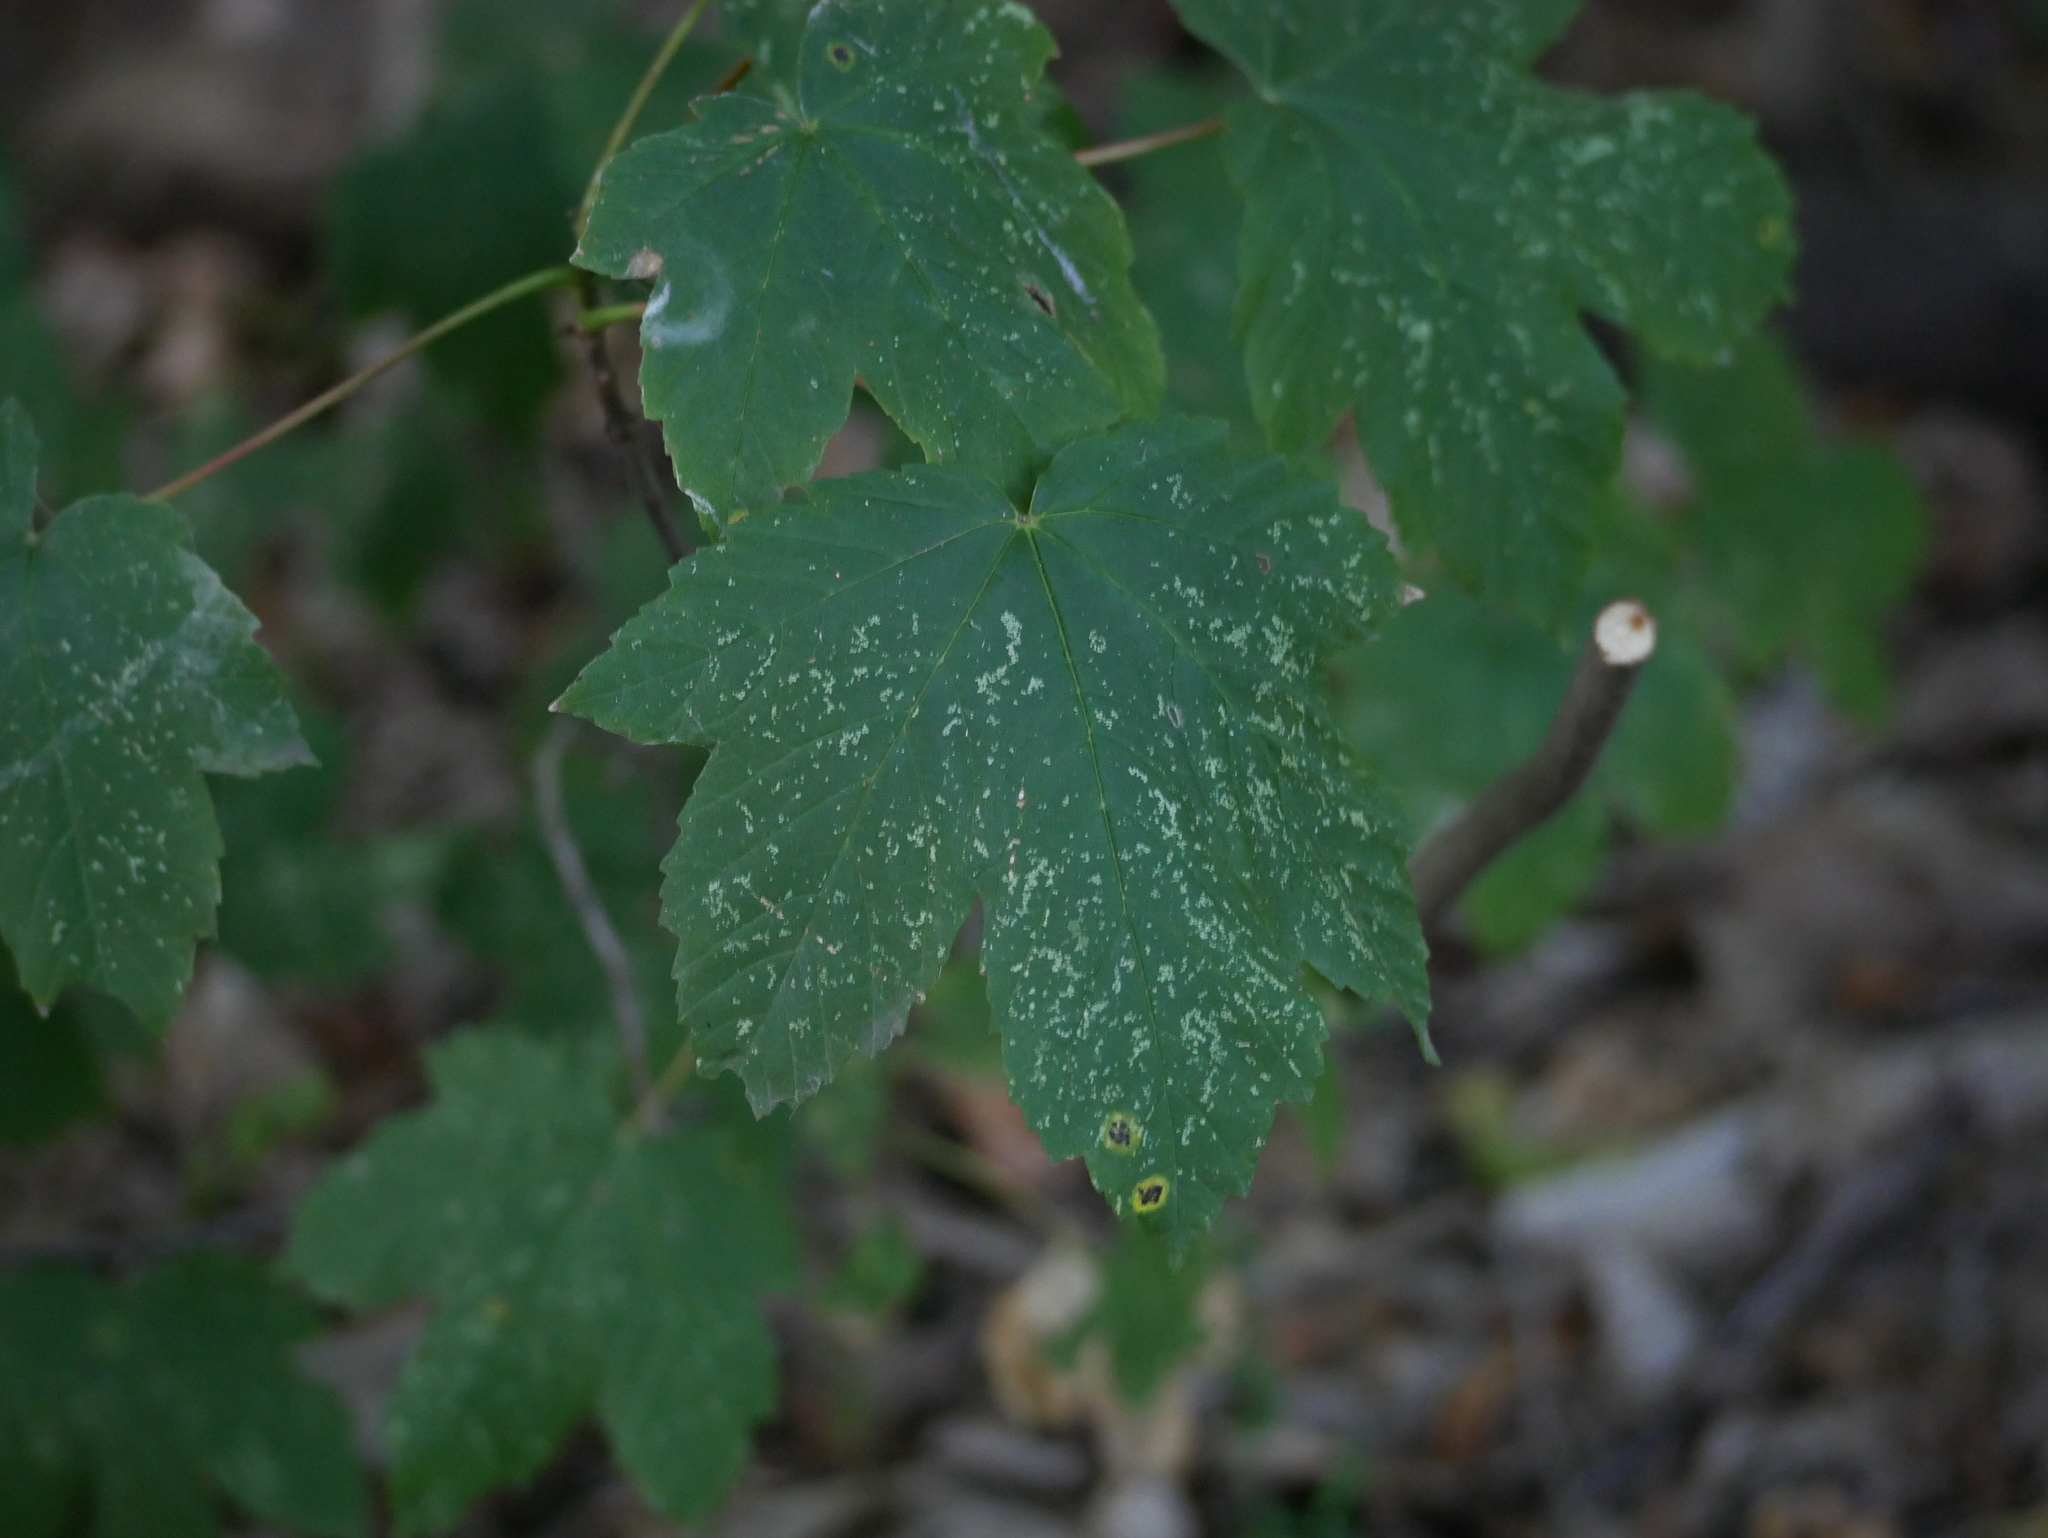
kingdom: Plantae
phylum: Tracheophyta
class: Magnoliopsida
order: Sapindales
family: Sapindaceae
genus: Acer
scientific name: Acer pseudoplatanus
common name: Sycamore
